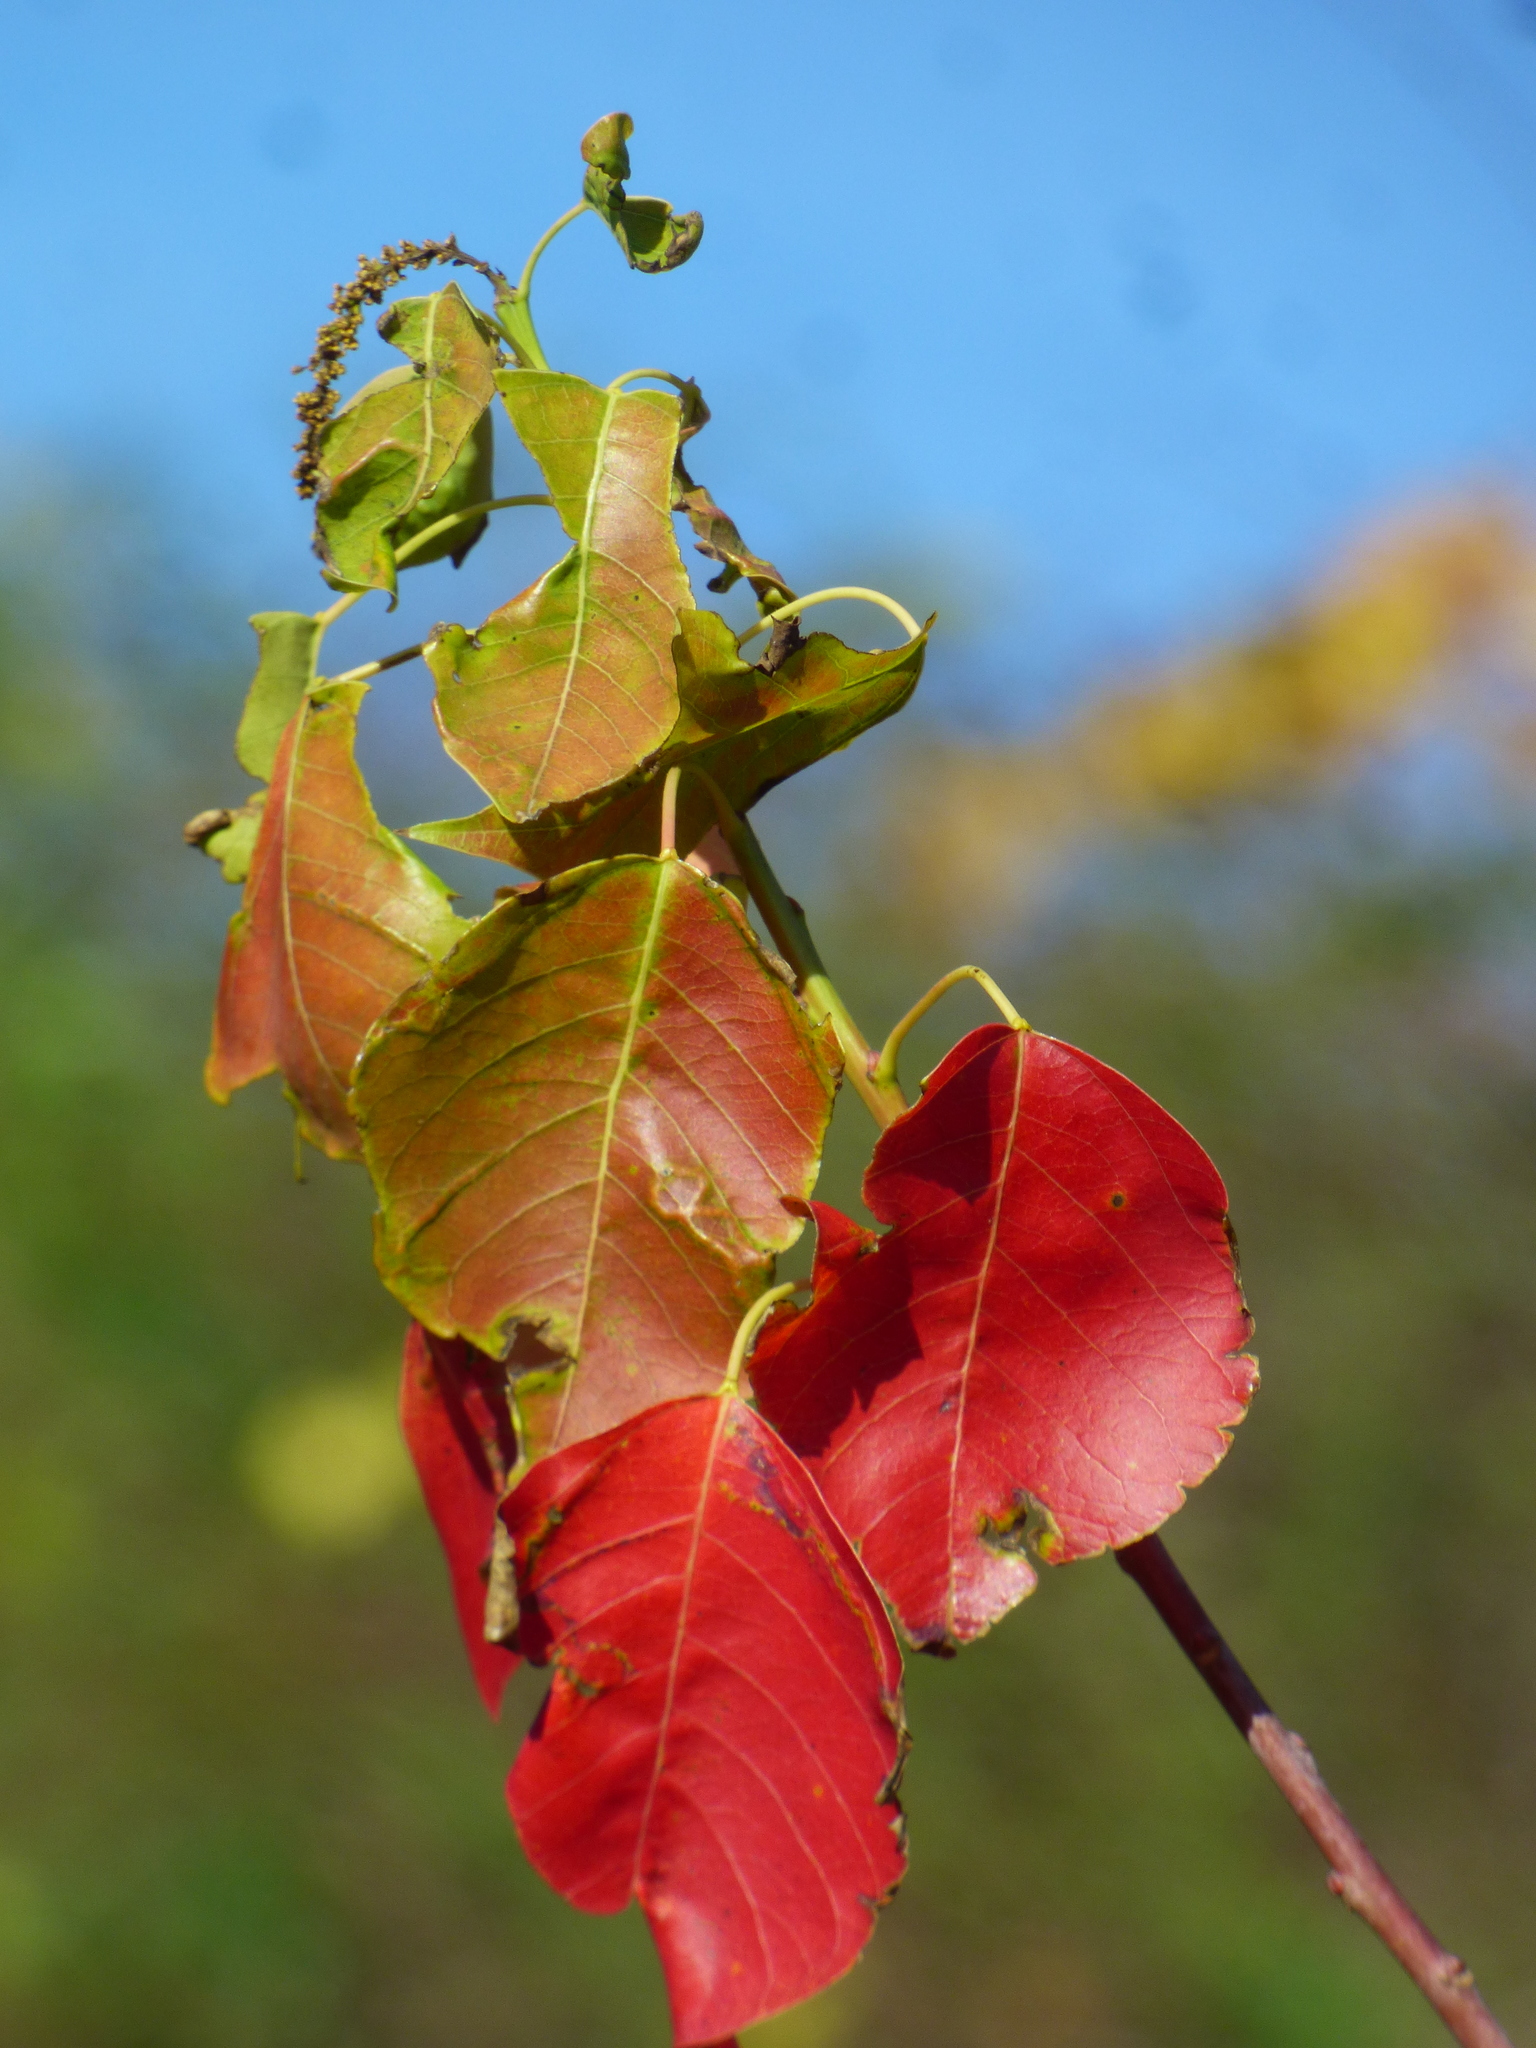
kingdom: Plantae
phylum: Tracheophyta
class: Magnoliopsida
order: Malpighiales
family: Euphorbiaceae
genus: Triadica
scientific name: Triadica sebifera
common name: Chinese tallow
